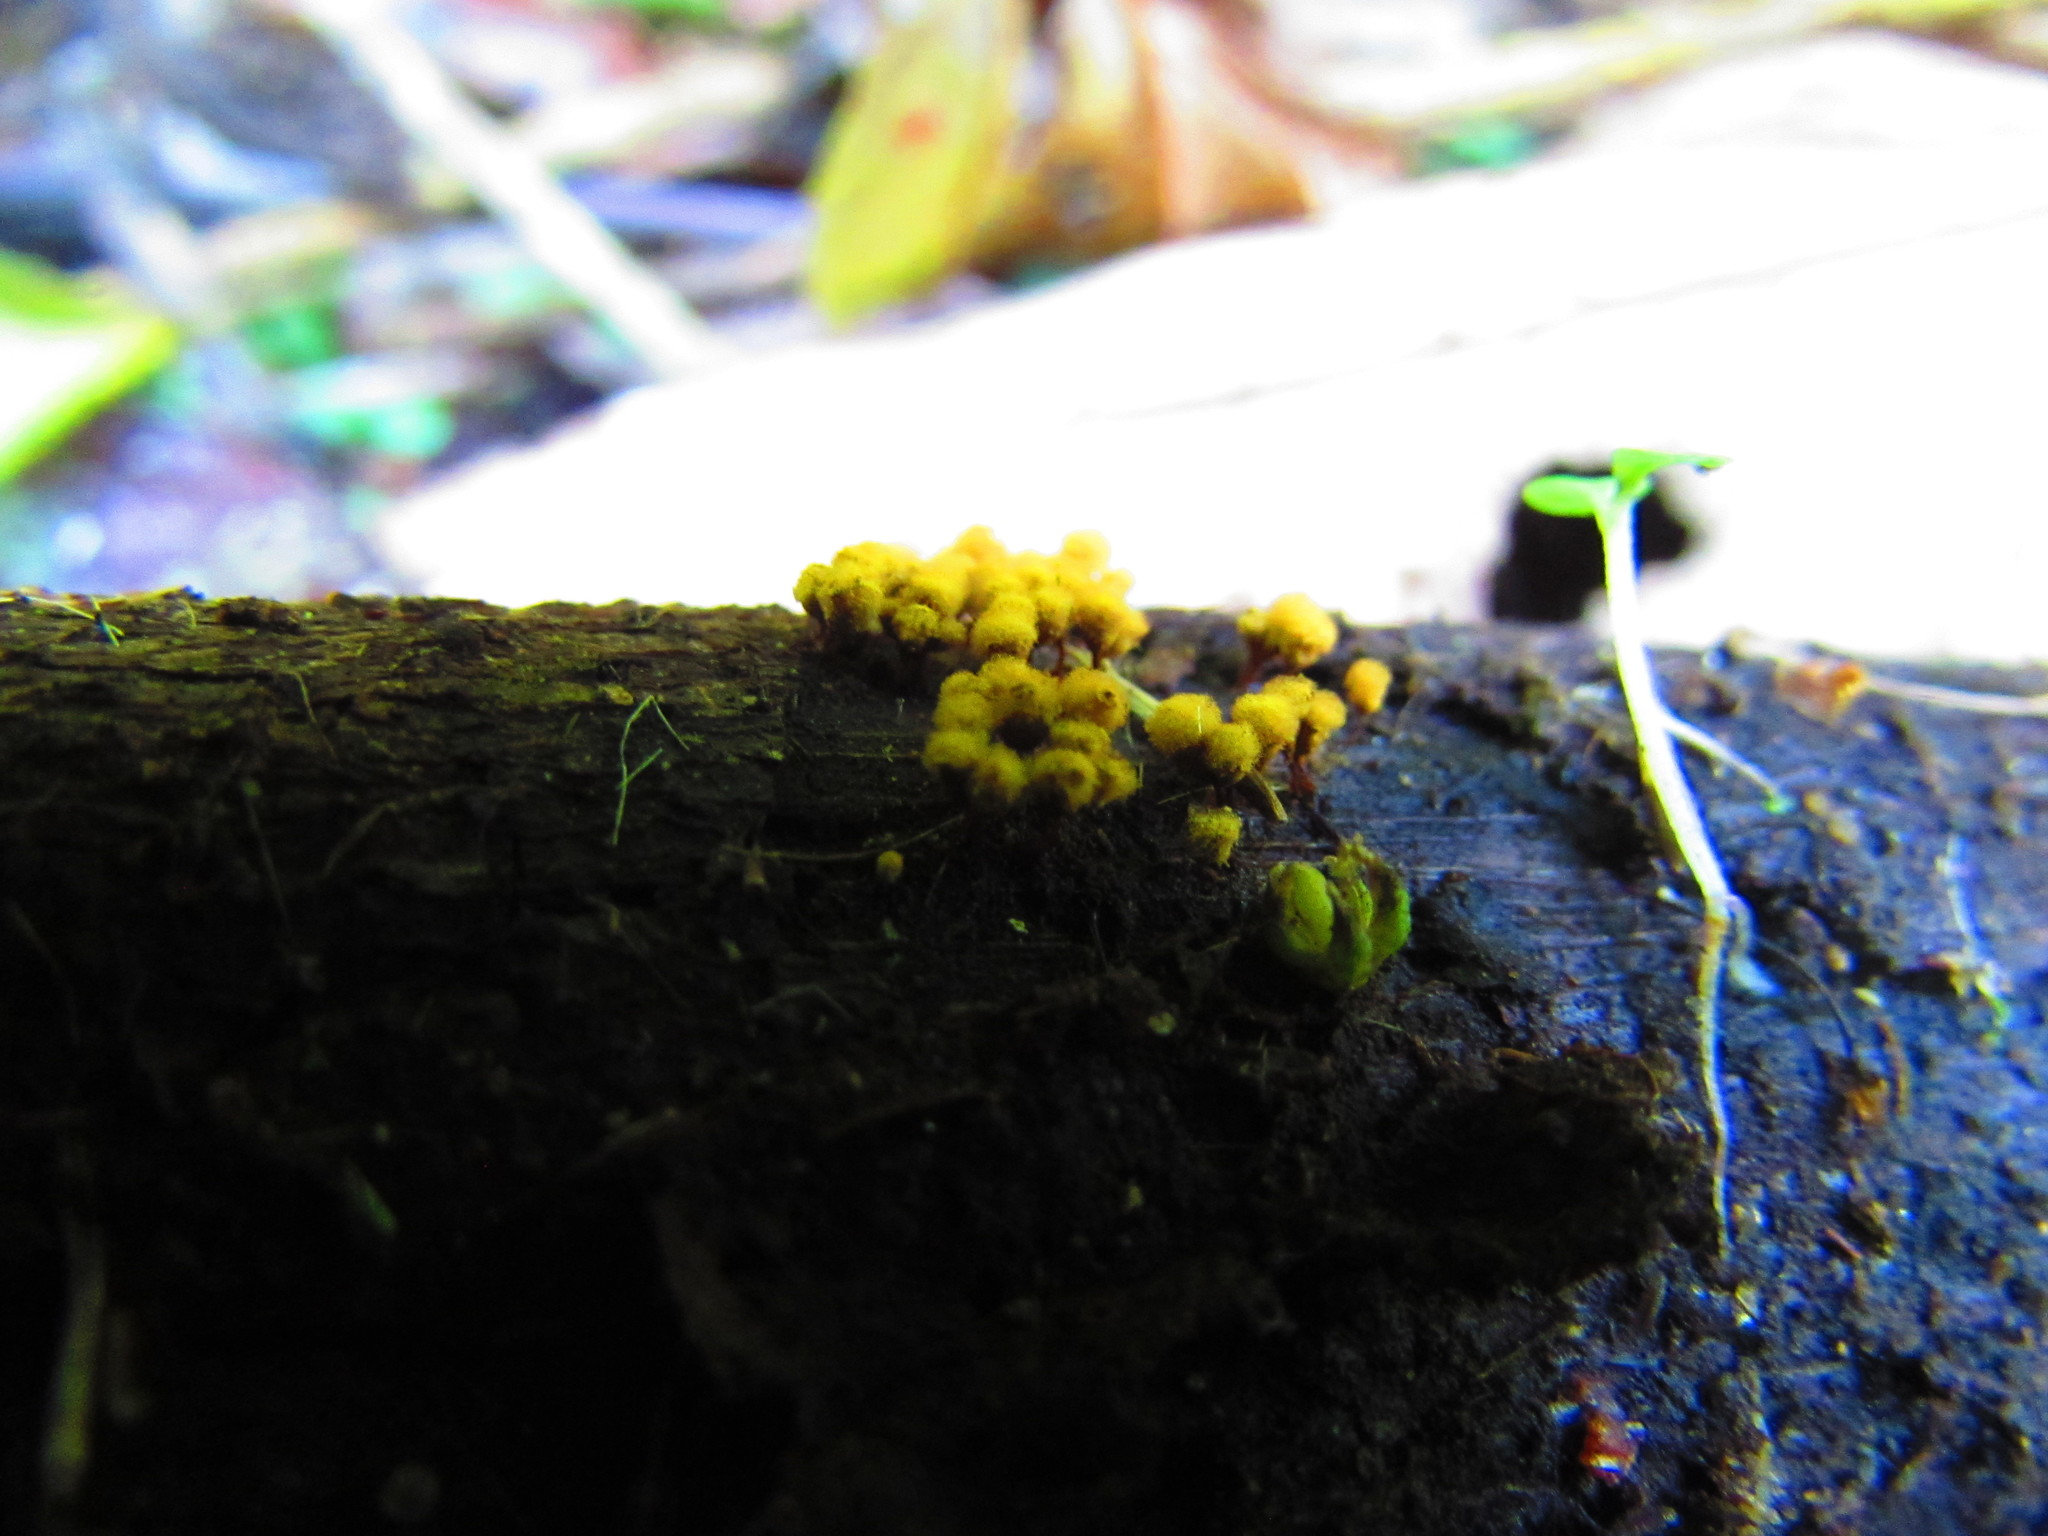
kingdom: Protozoa
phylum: Mycetozoa
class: Myxomycetes
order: Trichiales
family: Arcyriaceae
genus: Hemitrichia
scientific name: Hemitrichia clavata
